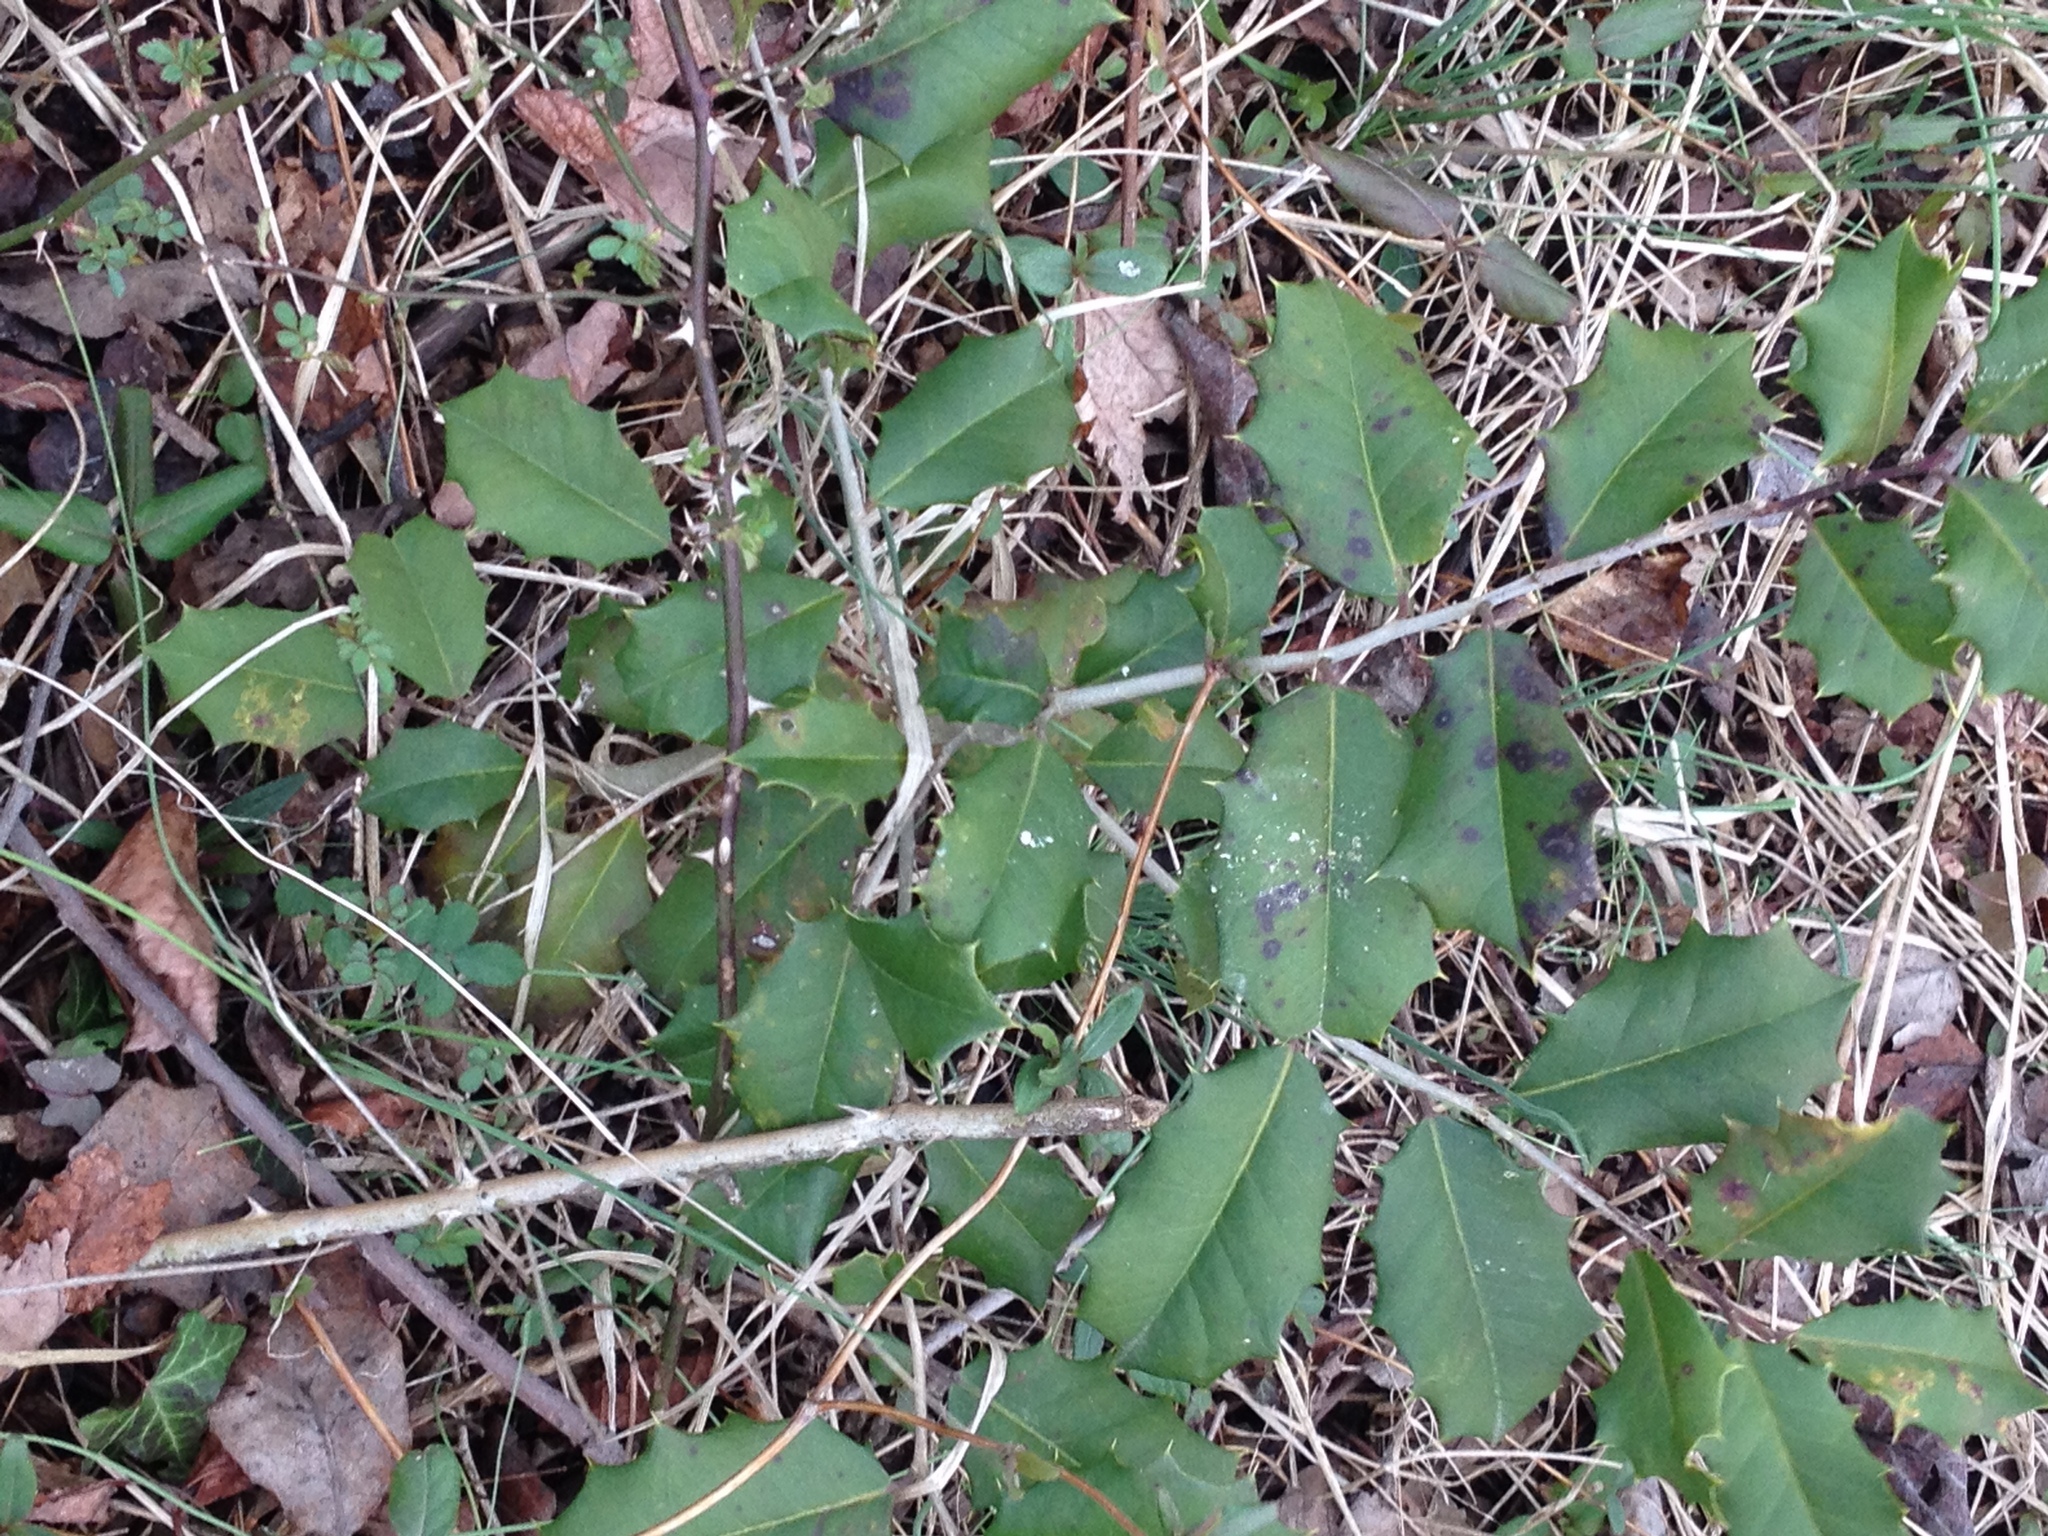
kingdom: Plantae
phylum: Tracheophyta
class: Magnoliopsida
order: Aquifoliales
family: Aquifoliaceae
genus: Ilex
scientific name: Ilex opaca
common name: American holly
